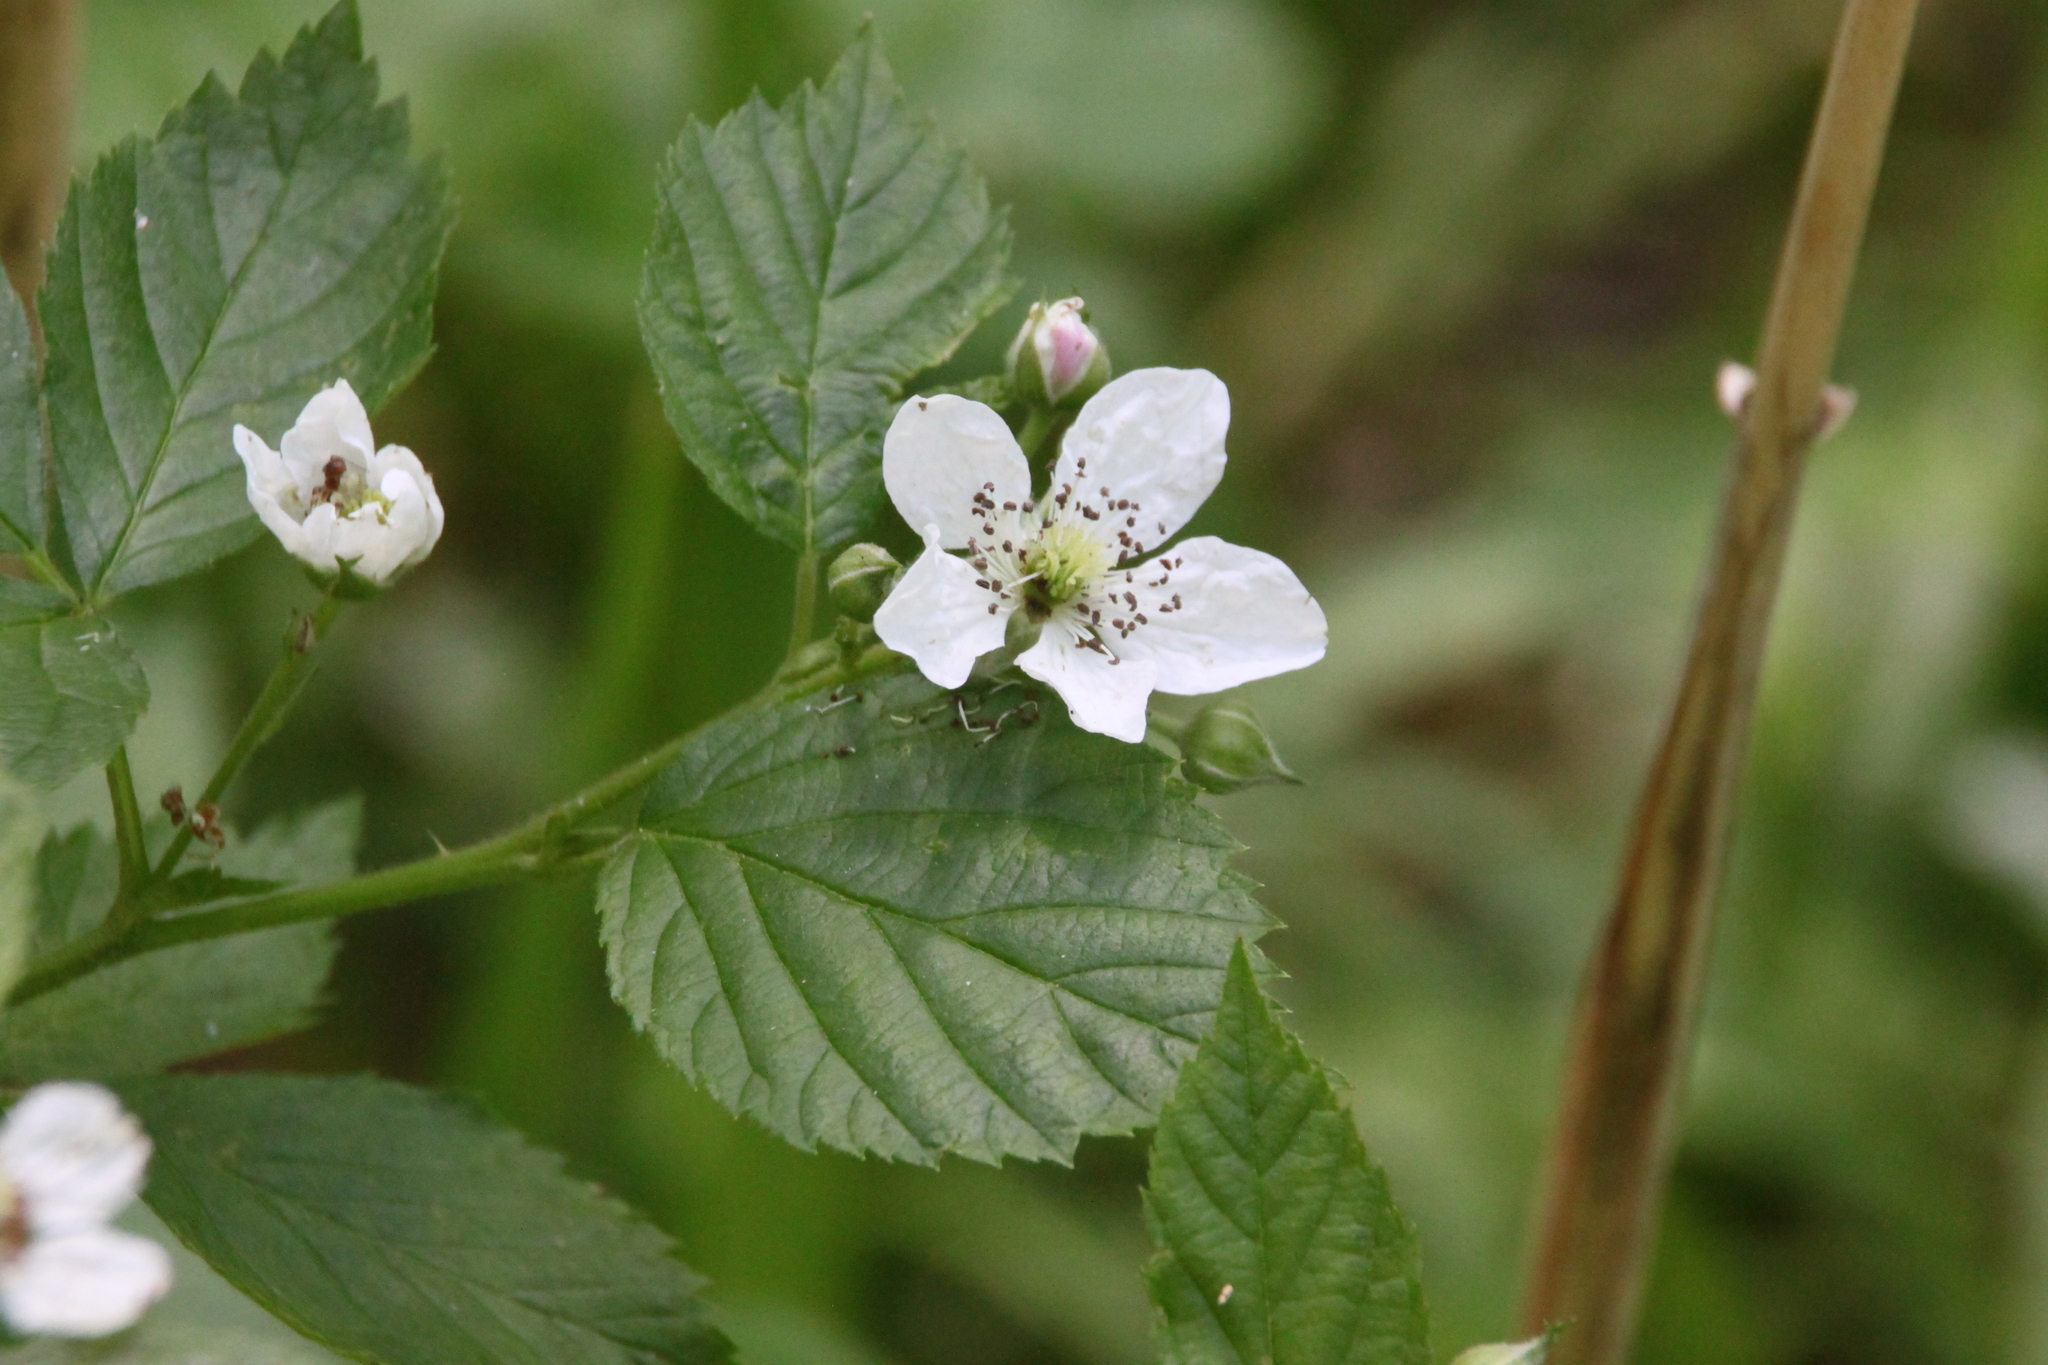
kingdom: Plantae
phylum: Tracheophyta
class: Magnoliopsida
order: Rosales
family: Rosaceae
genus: Rubus
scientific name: Rubus polonicus
